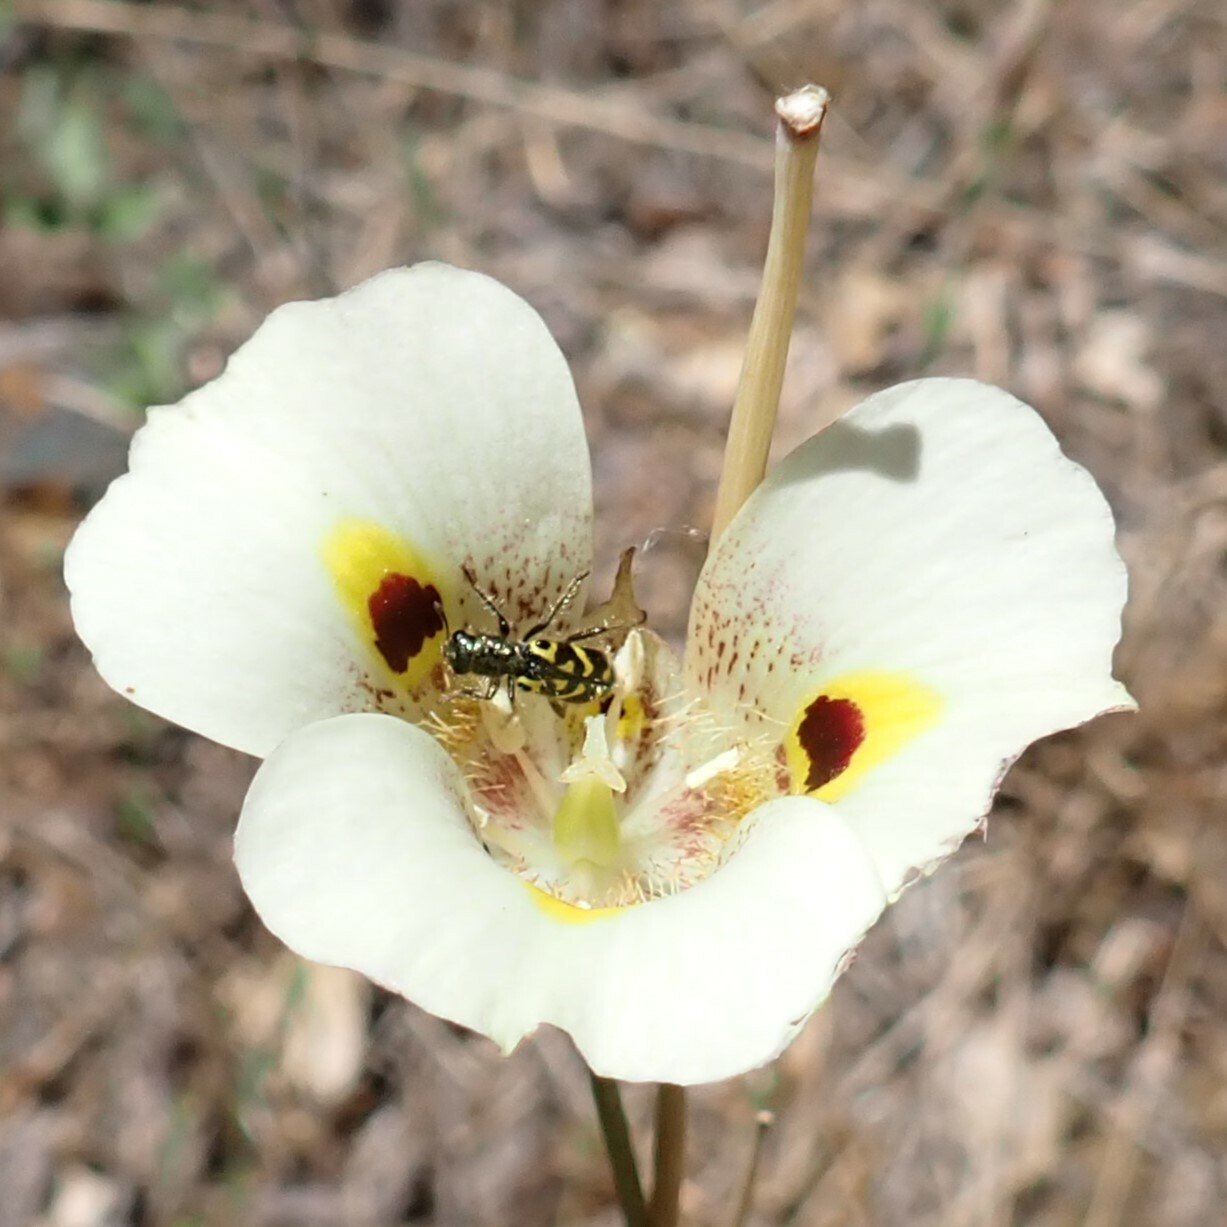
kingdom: Animalia
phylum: Arthropoda
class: Insecta
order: Coleoptera
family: Cleridae
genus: Trichodes
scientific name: Trichodes ornatus
